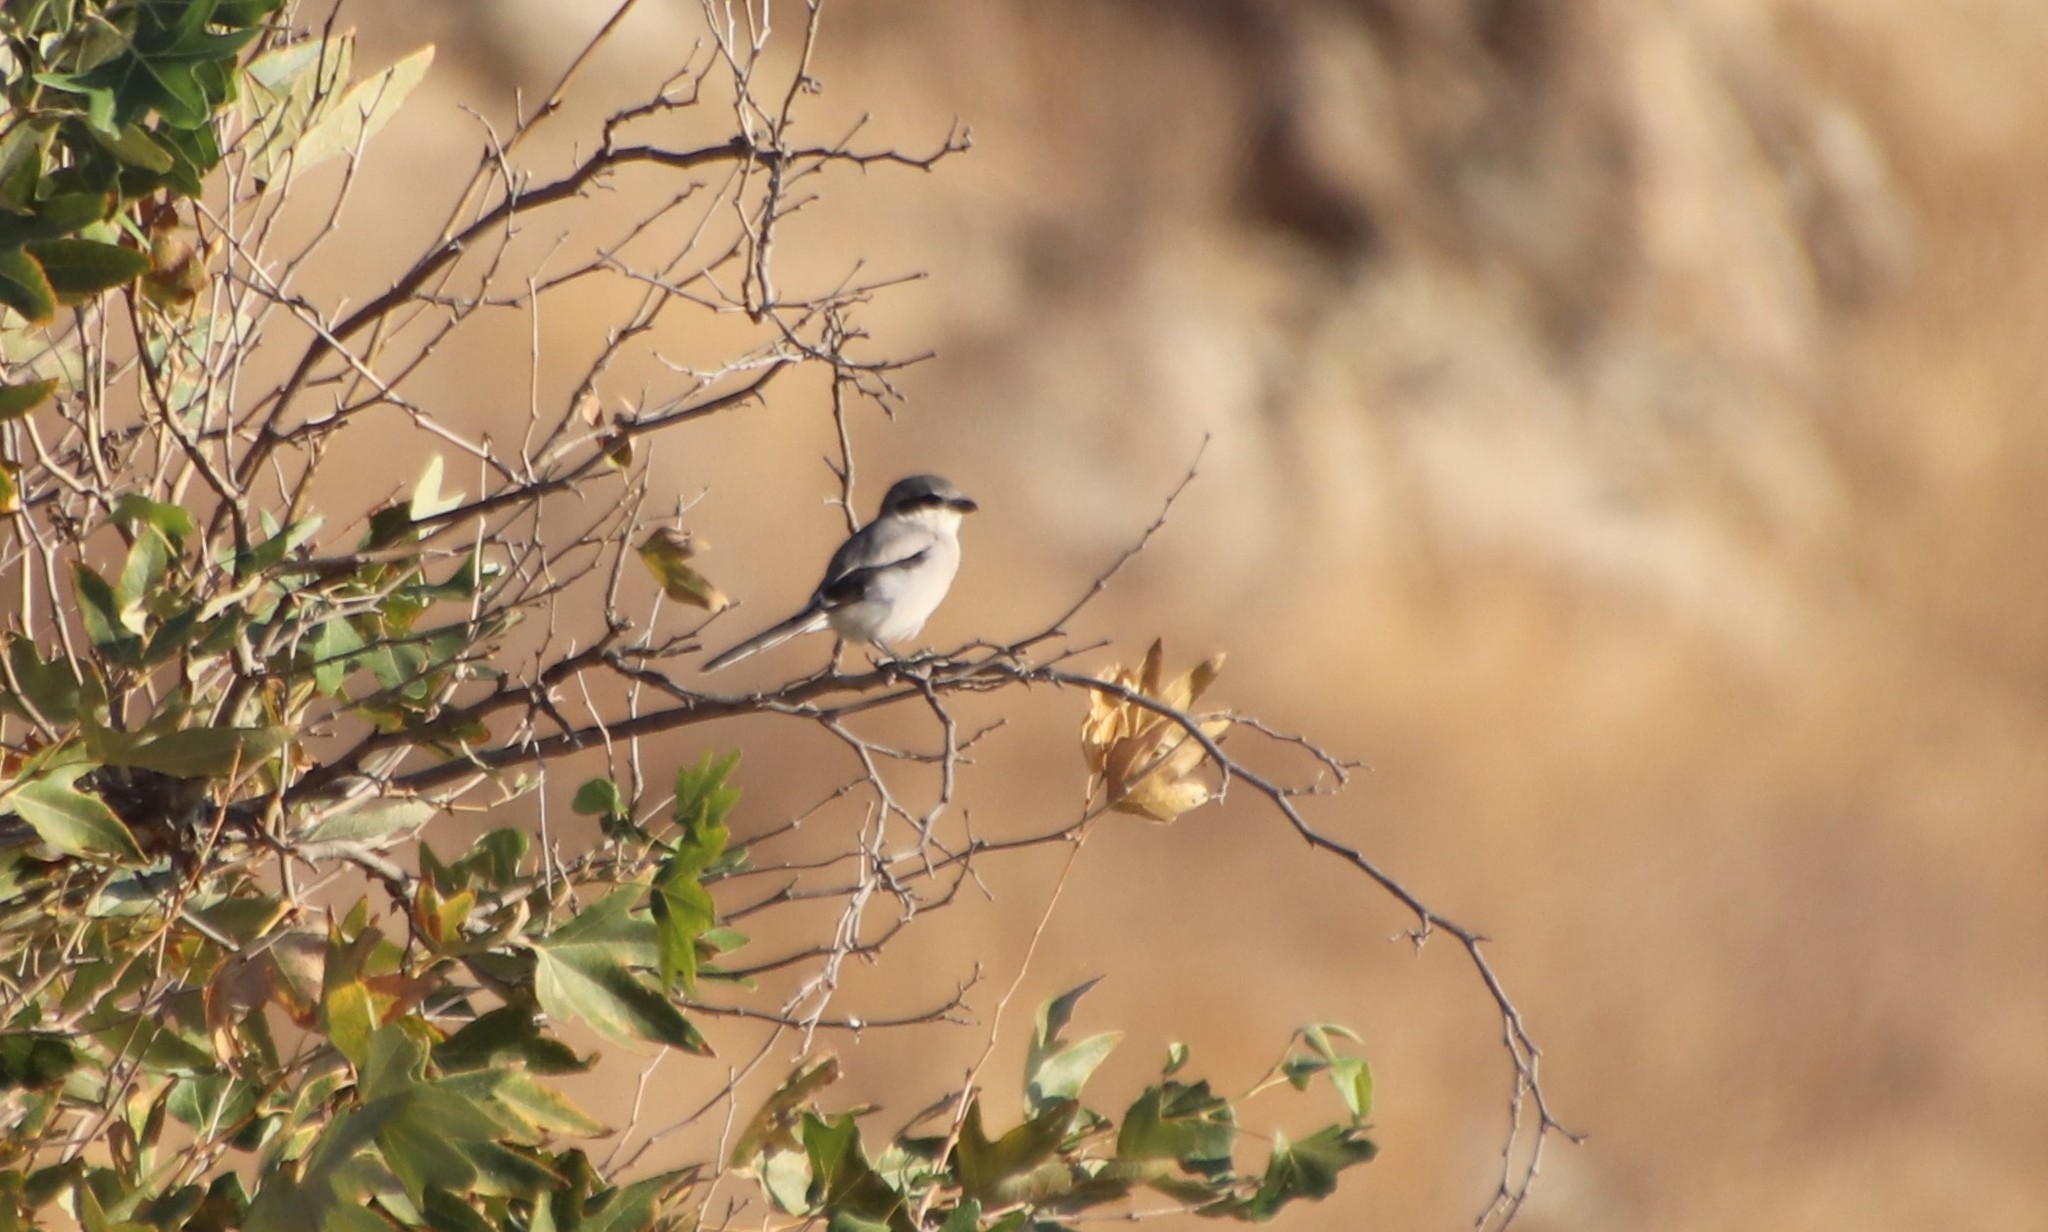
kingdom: Animalia
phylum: Chordata
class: Aves
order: Passeriformes
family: Laniidae
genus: Lanius
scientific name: Lanius ludovicianus
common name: Loggerhead shrike
